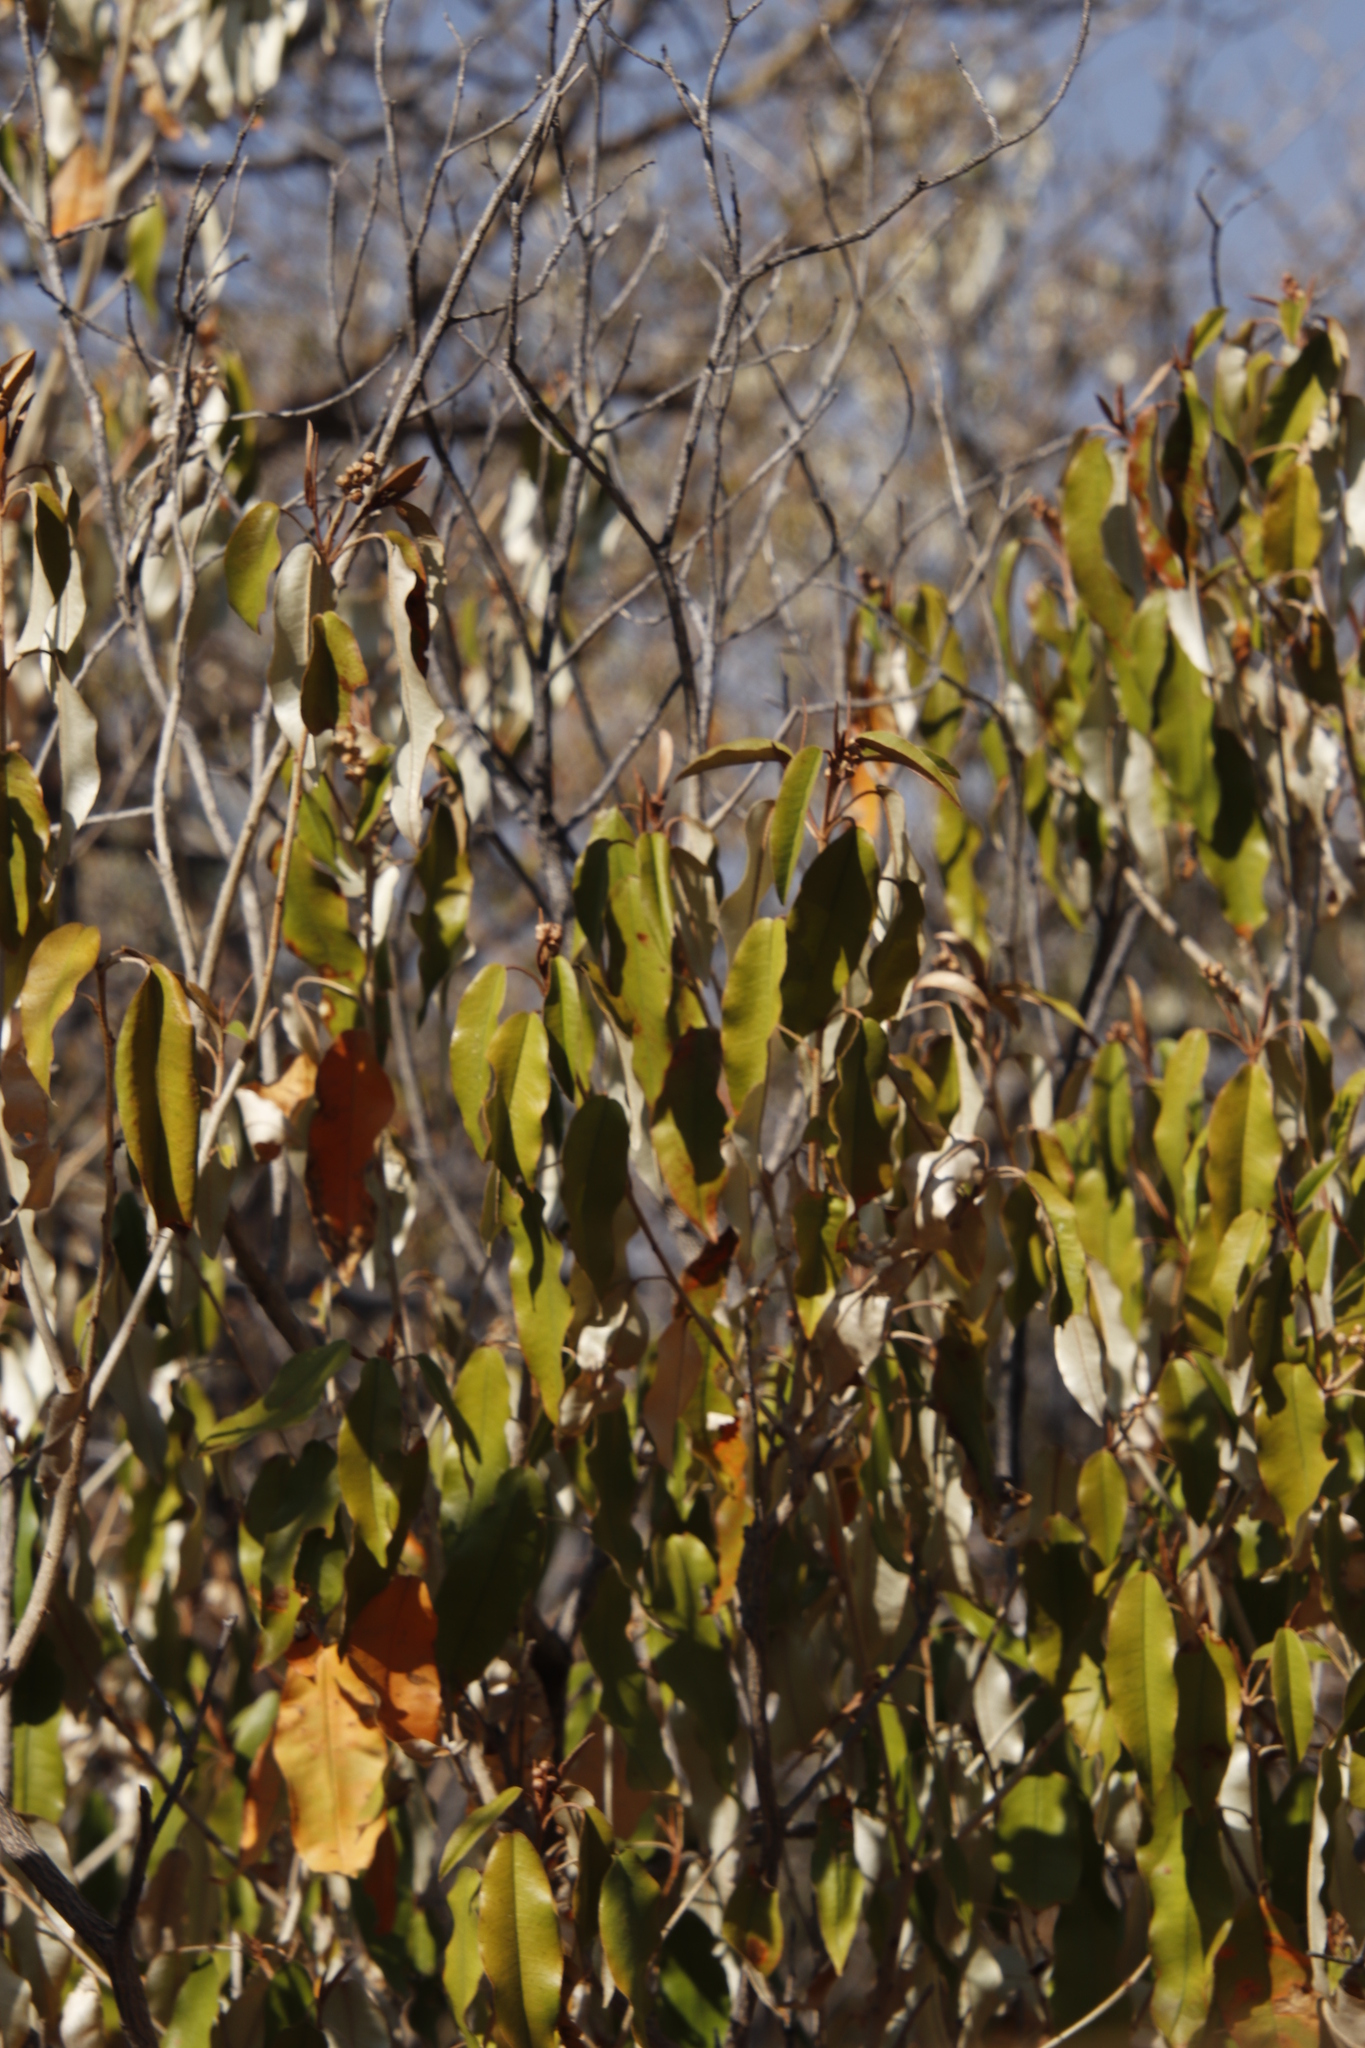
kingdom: Plantae
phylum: Tracheophyta
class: Magnoliopsida
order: Malpighiales
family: Euphorbiaceae
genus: Croton
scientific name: Croton gratissimus
